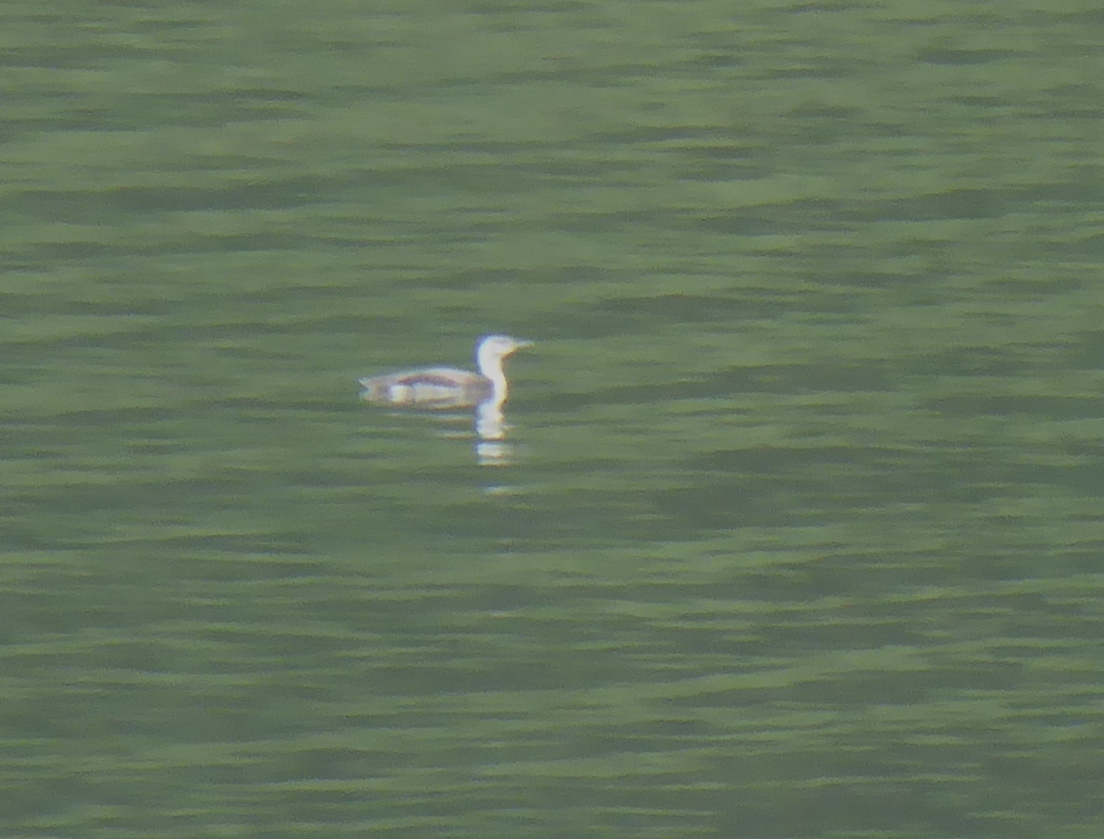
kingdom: Animalia
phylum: Chordata
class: Aves
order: Gaviiformes
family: Gaviidae
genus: Gavia
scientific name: Gavia stellata
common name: Red-throated loon
